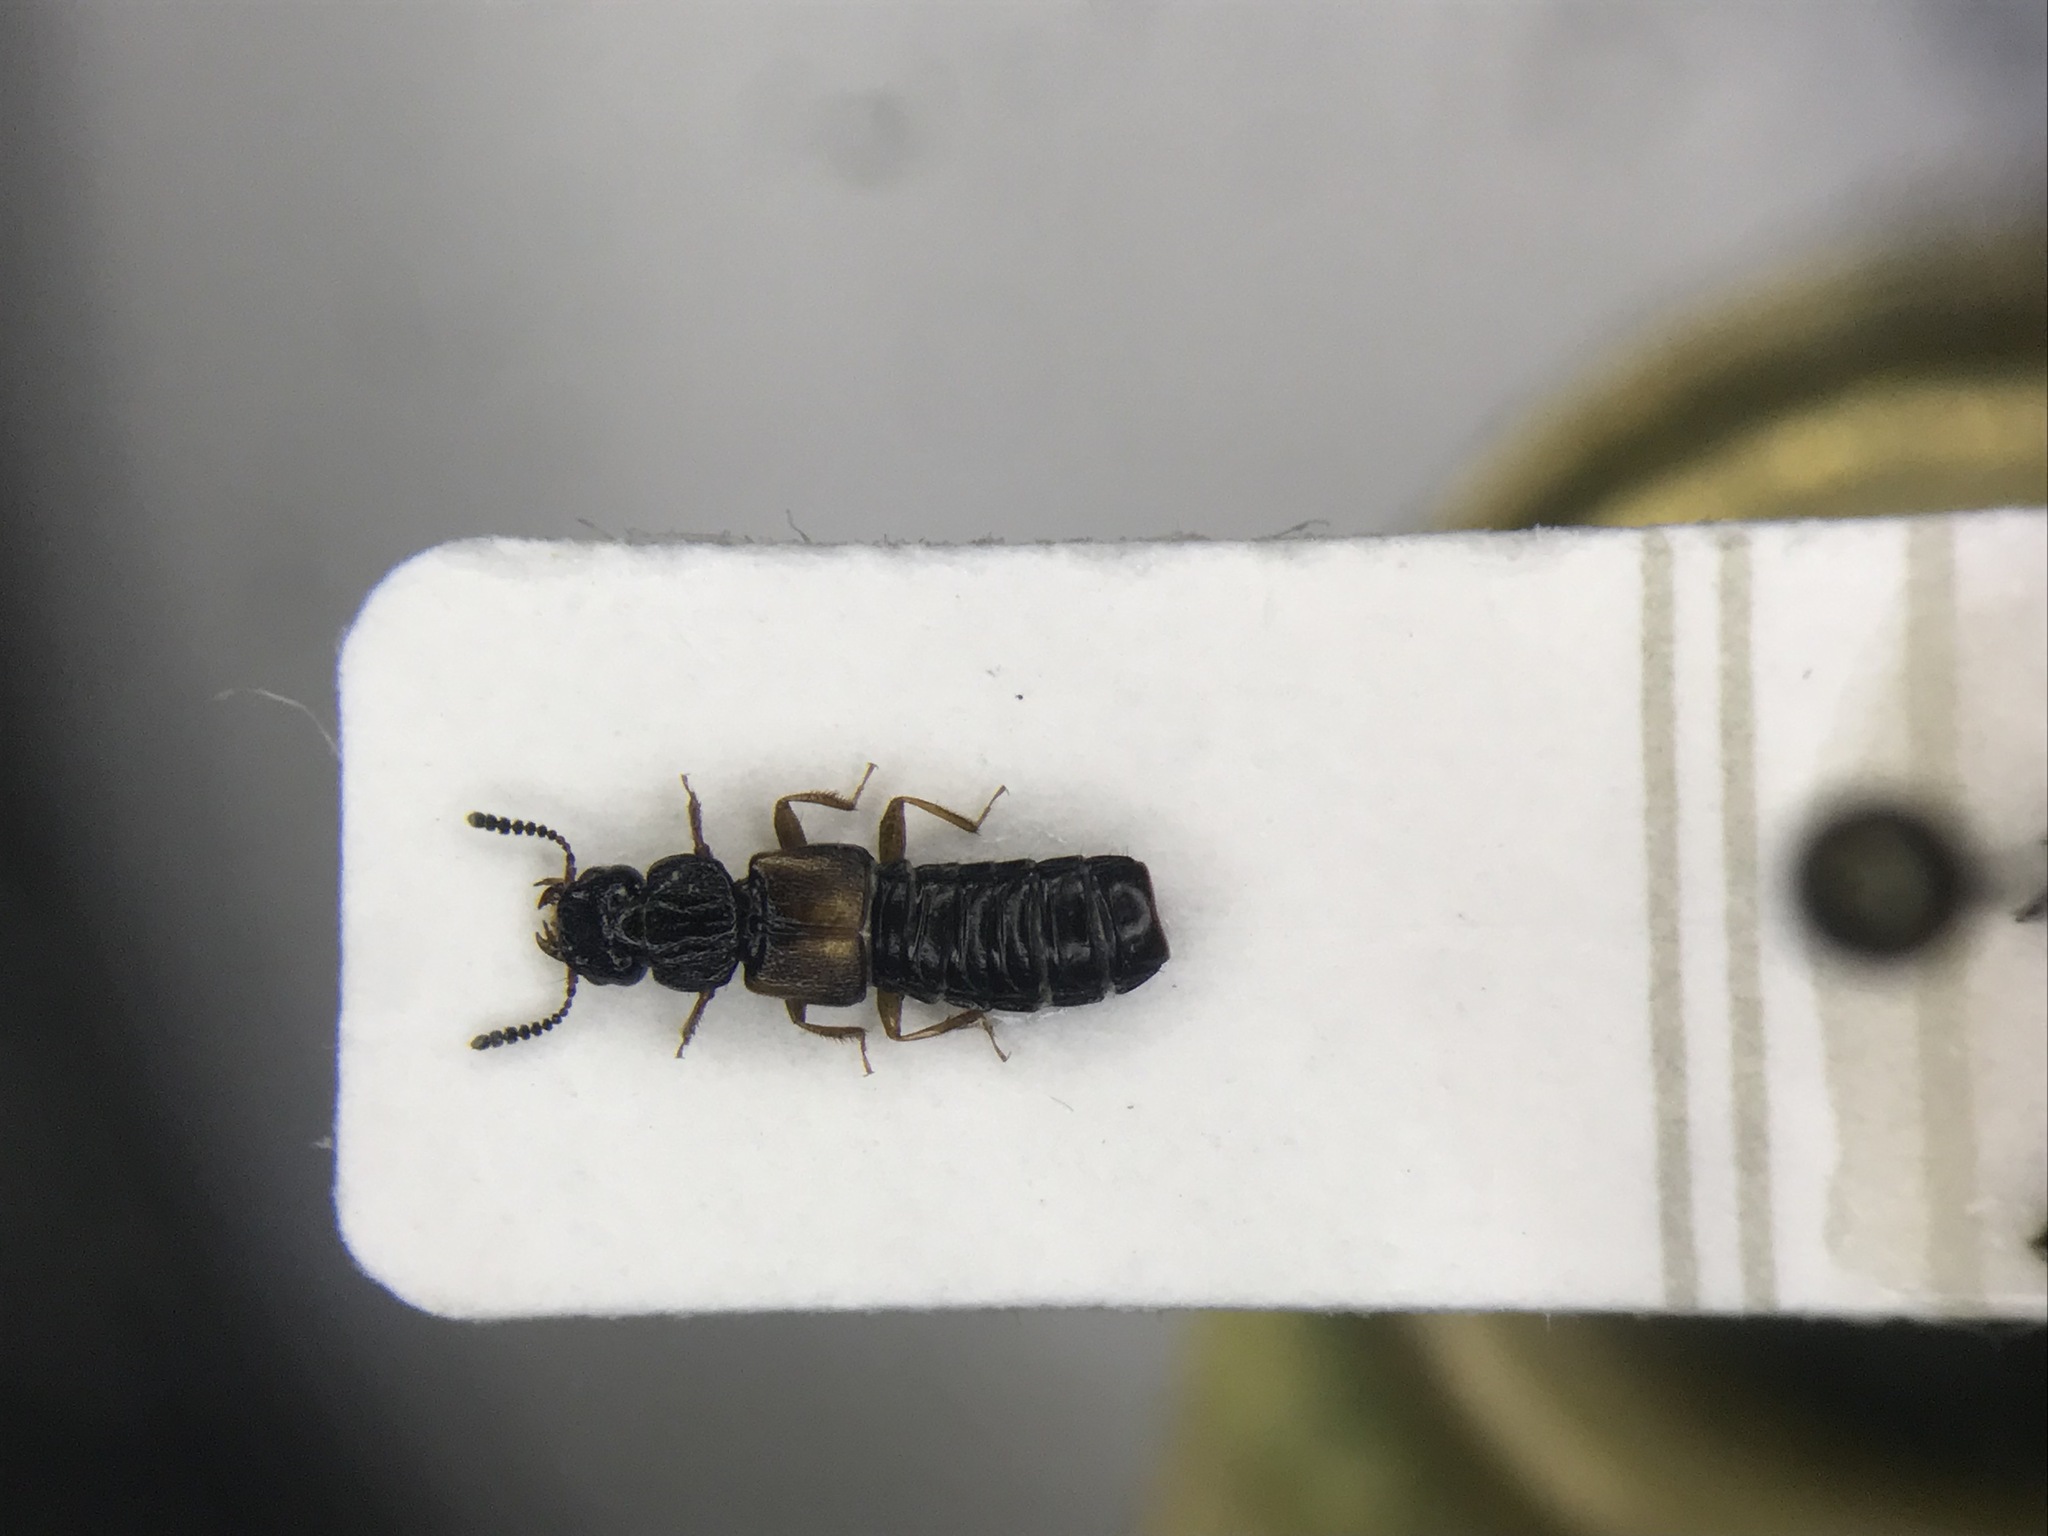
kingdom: Animalia
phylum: Arthropoda
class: Insecta
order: Coleoptera
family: Staphylinidae
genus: Oxytelus
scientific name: Oxytelus laqueatus
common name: Rove beetle
